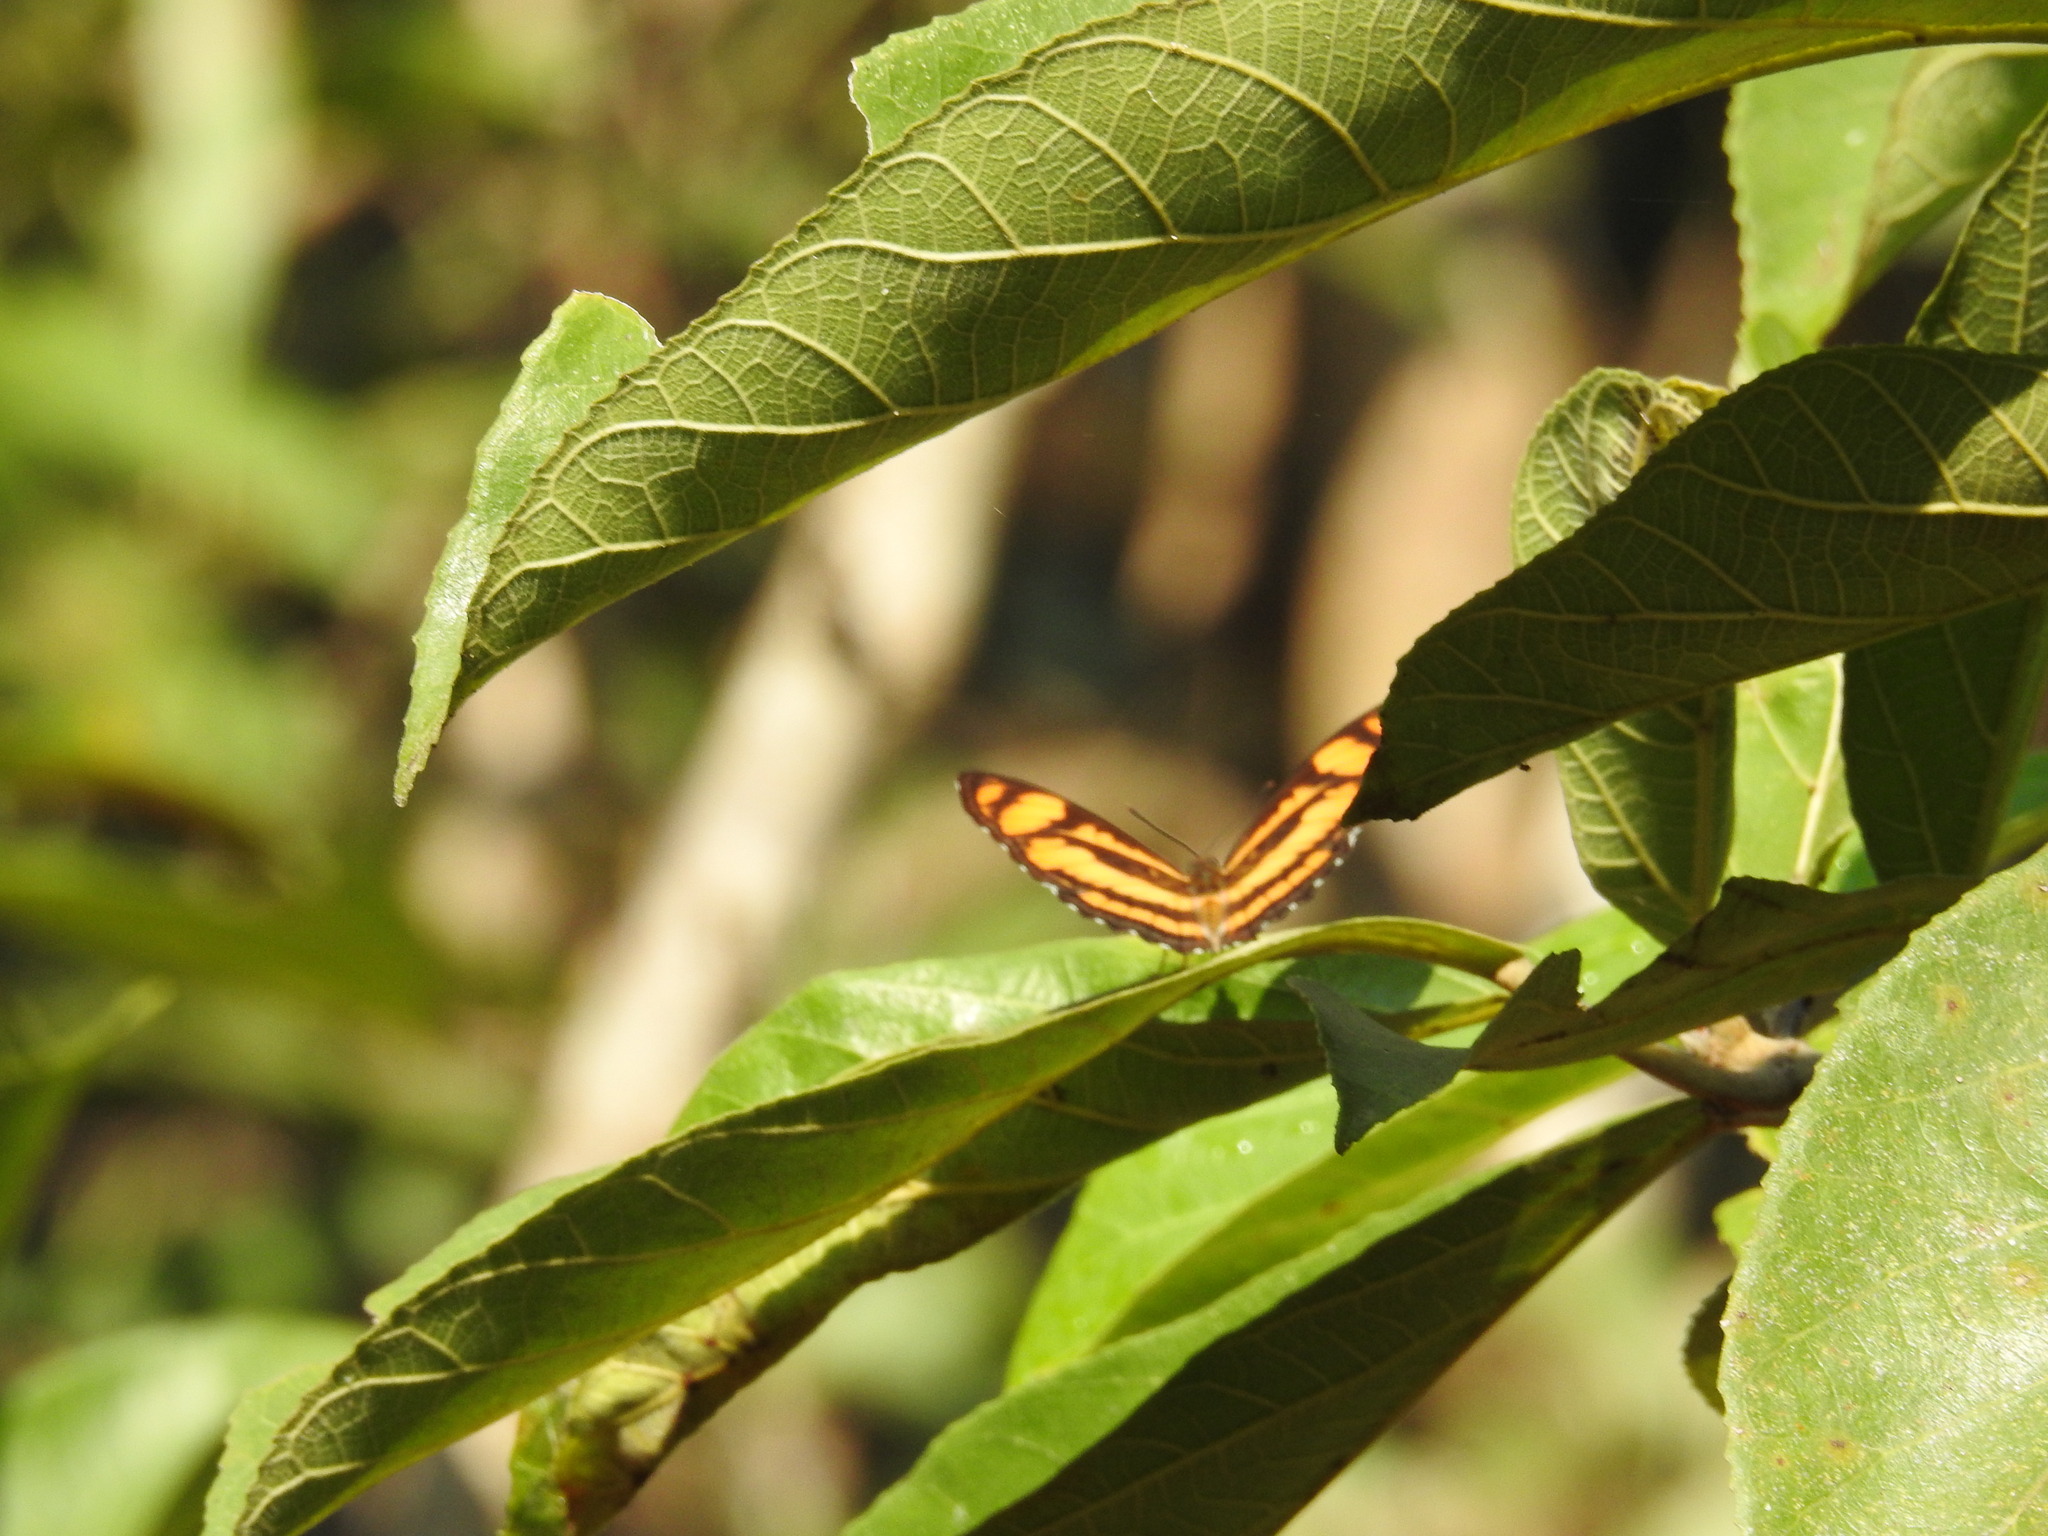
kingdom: Animalia
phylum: Arthropoda
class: Insecta
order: Lepidoptera
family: Nymphalidae
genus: Parathyma
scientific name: Parathyma nefte
